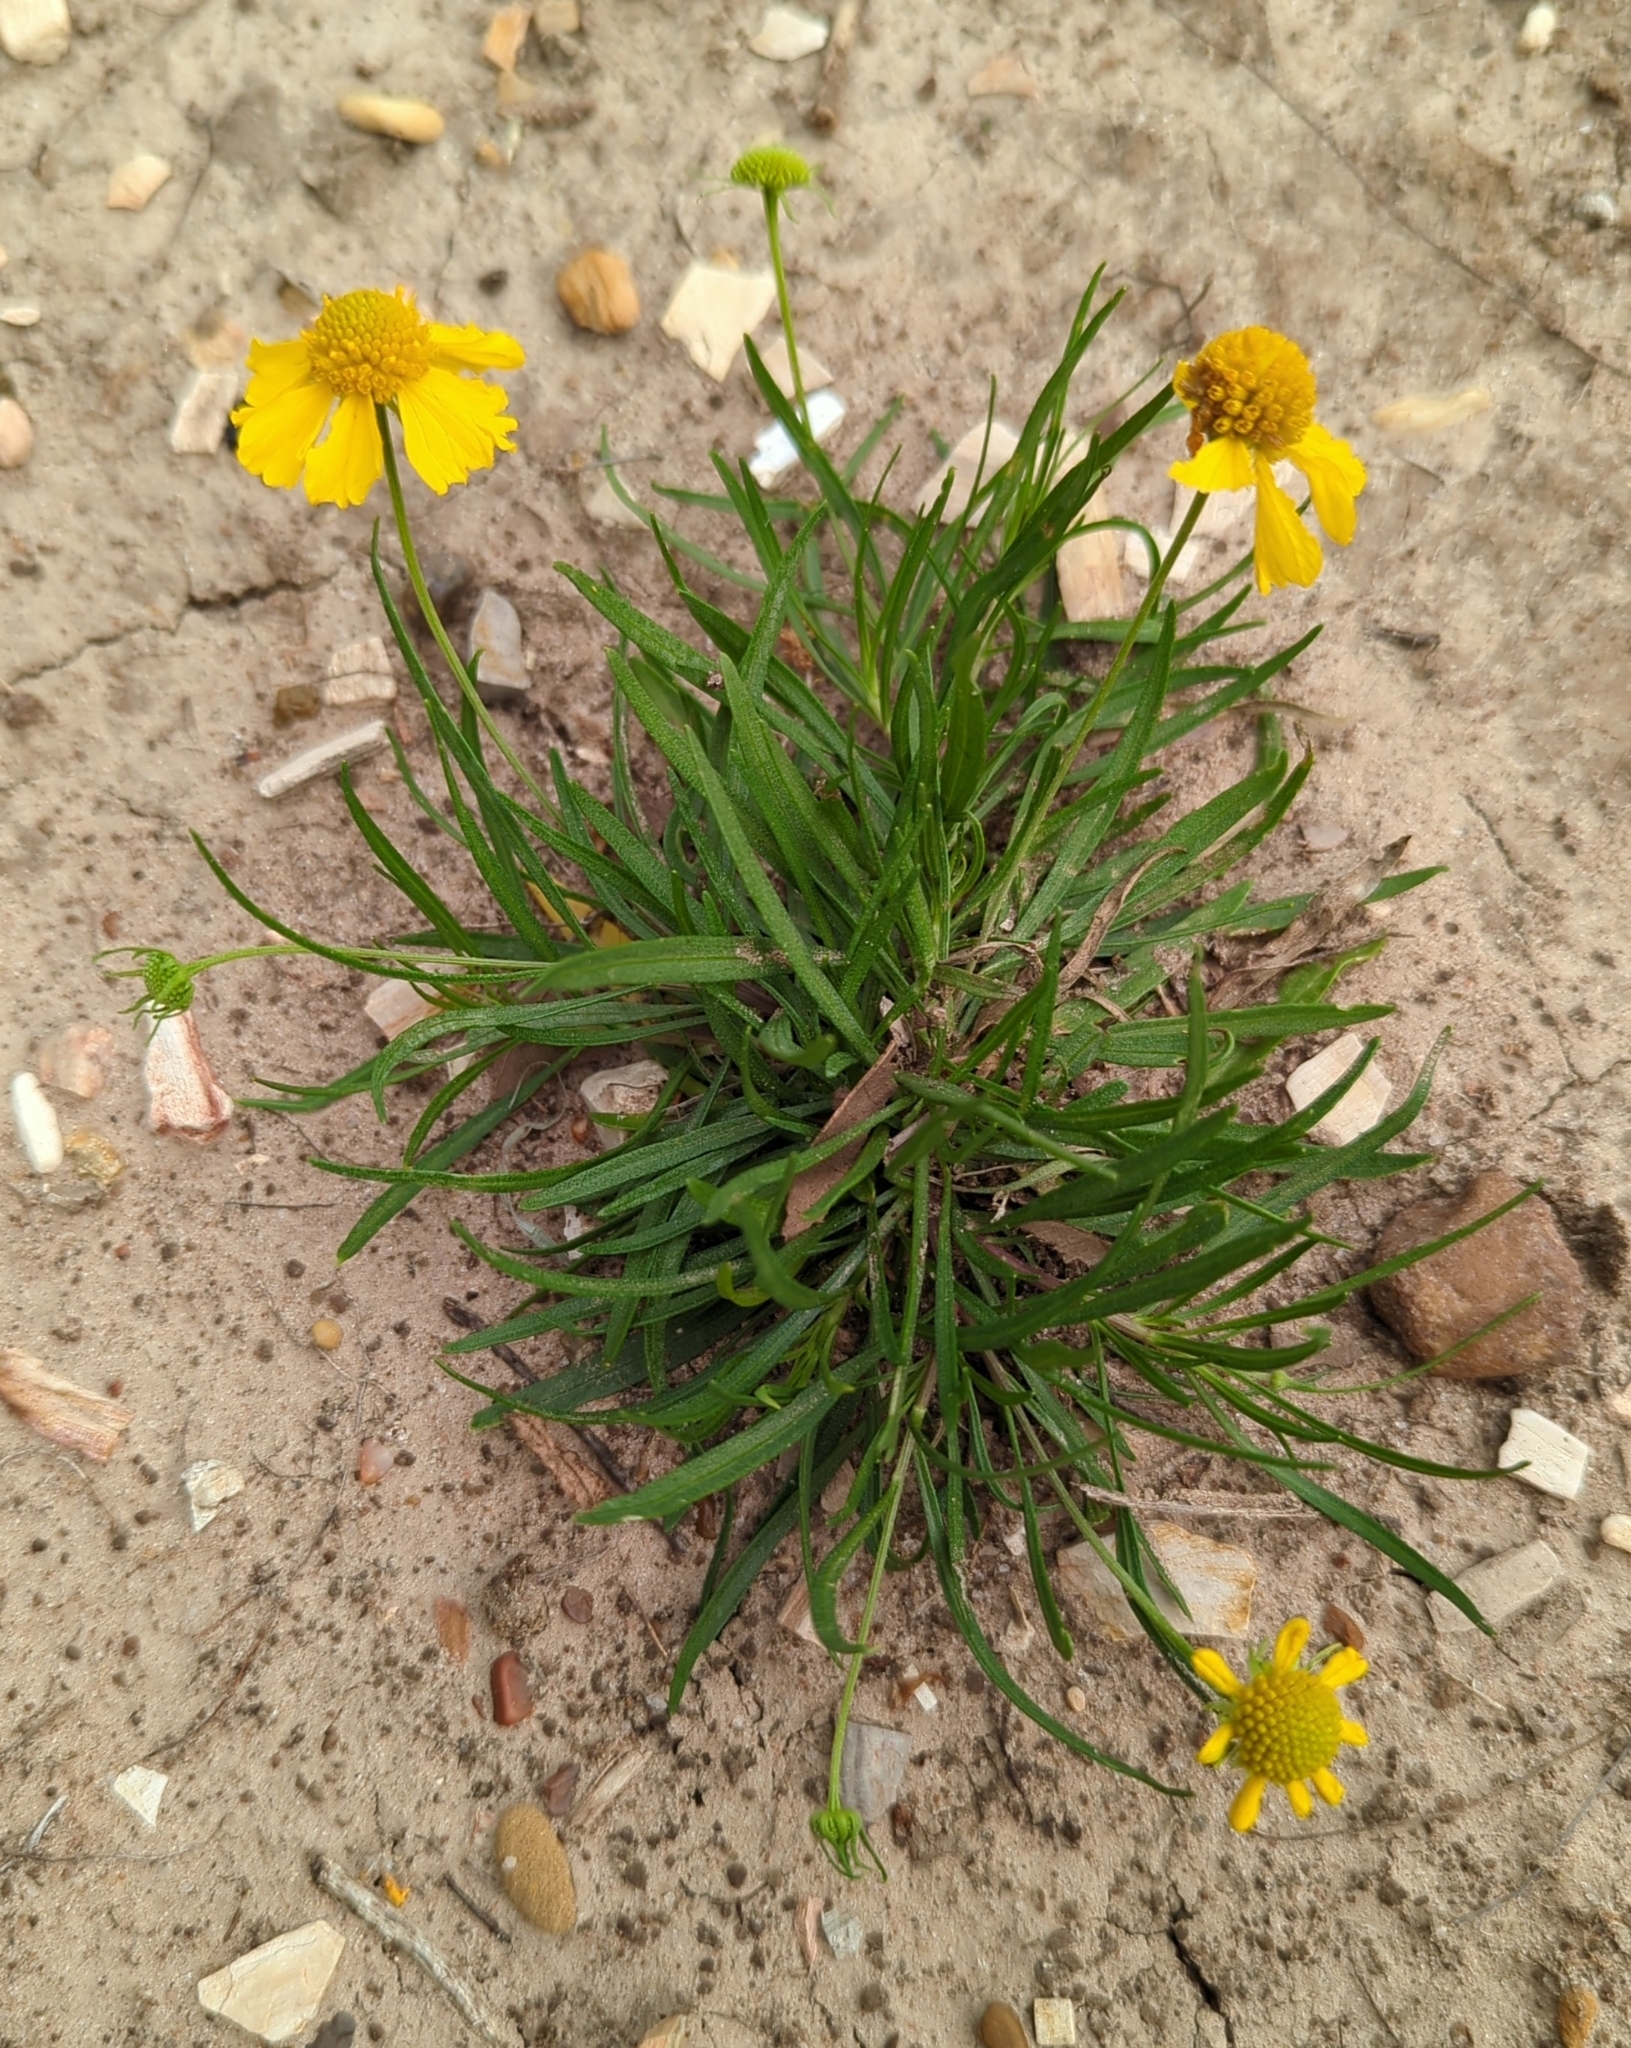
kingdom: Plantae
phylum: Tracheophyta
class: Magnoliopsida
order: Asterales
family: Asteraceae
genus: Helenium
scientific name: Helenium amarum
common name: Bitter sneezeweed
